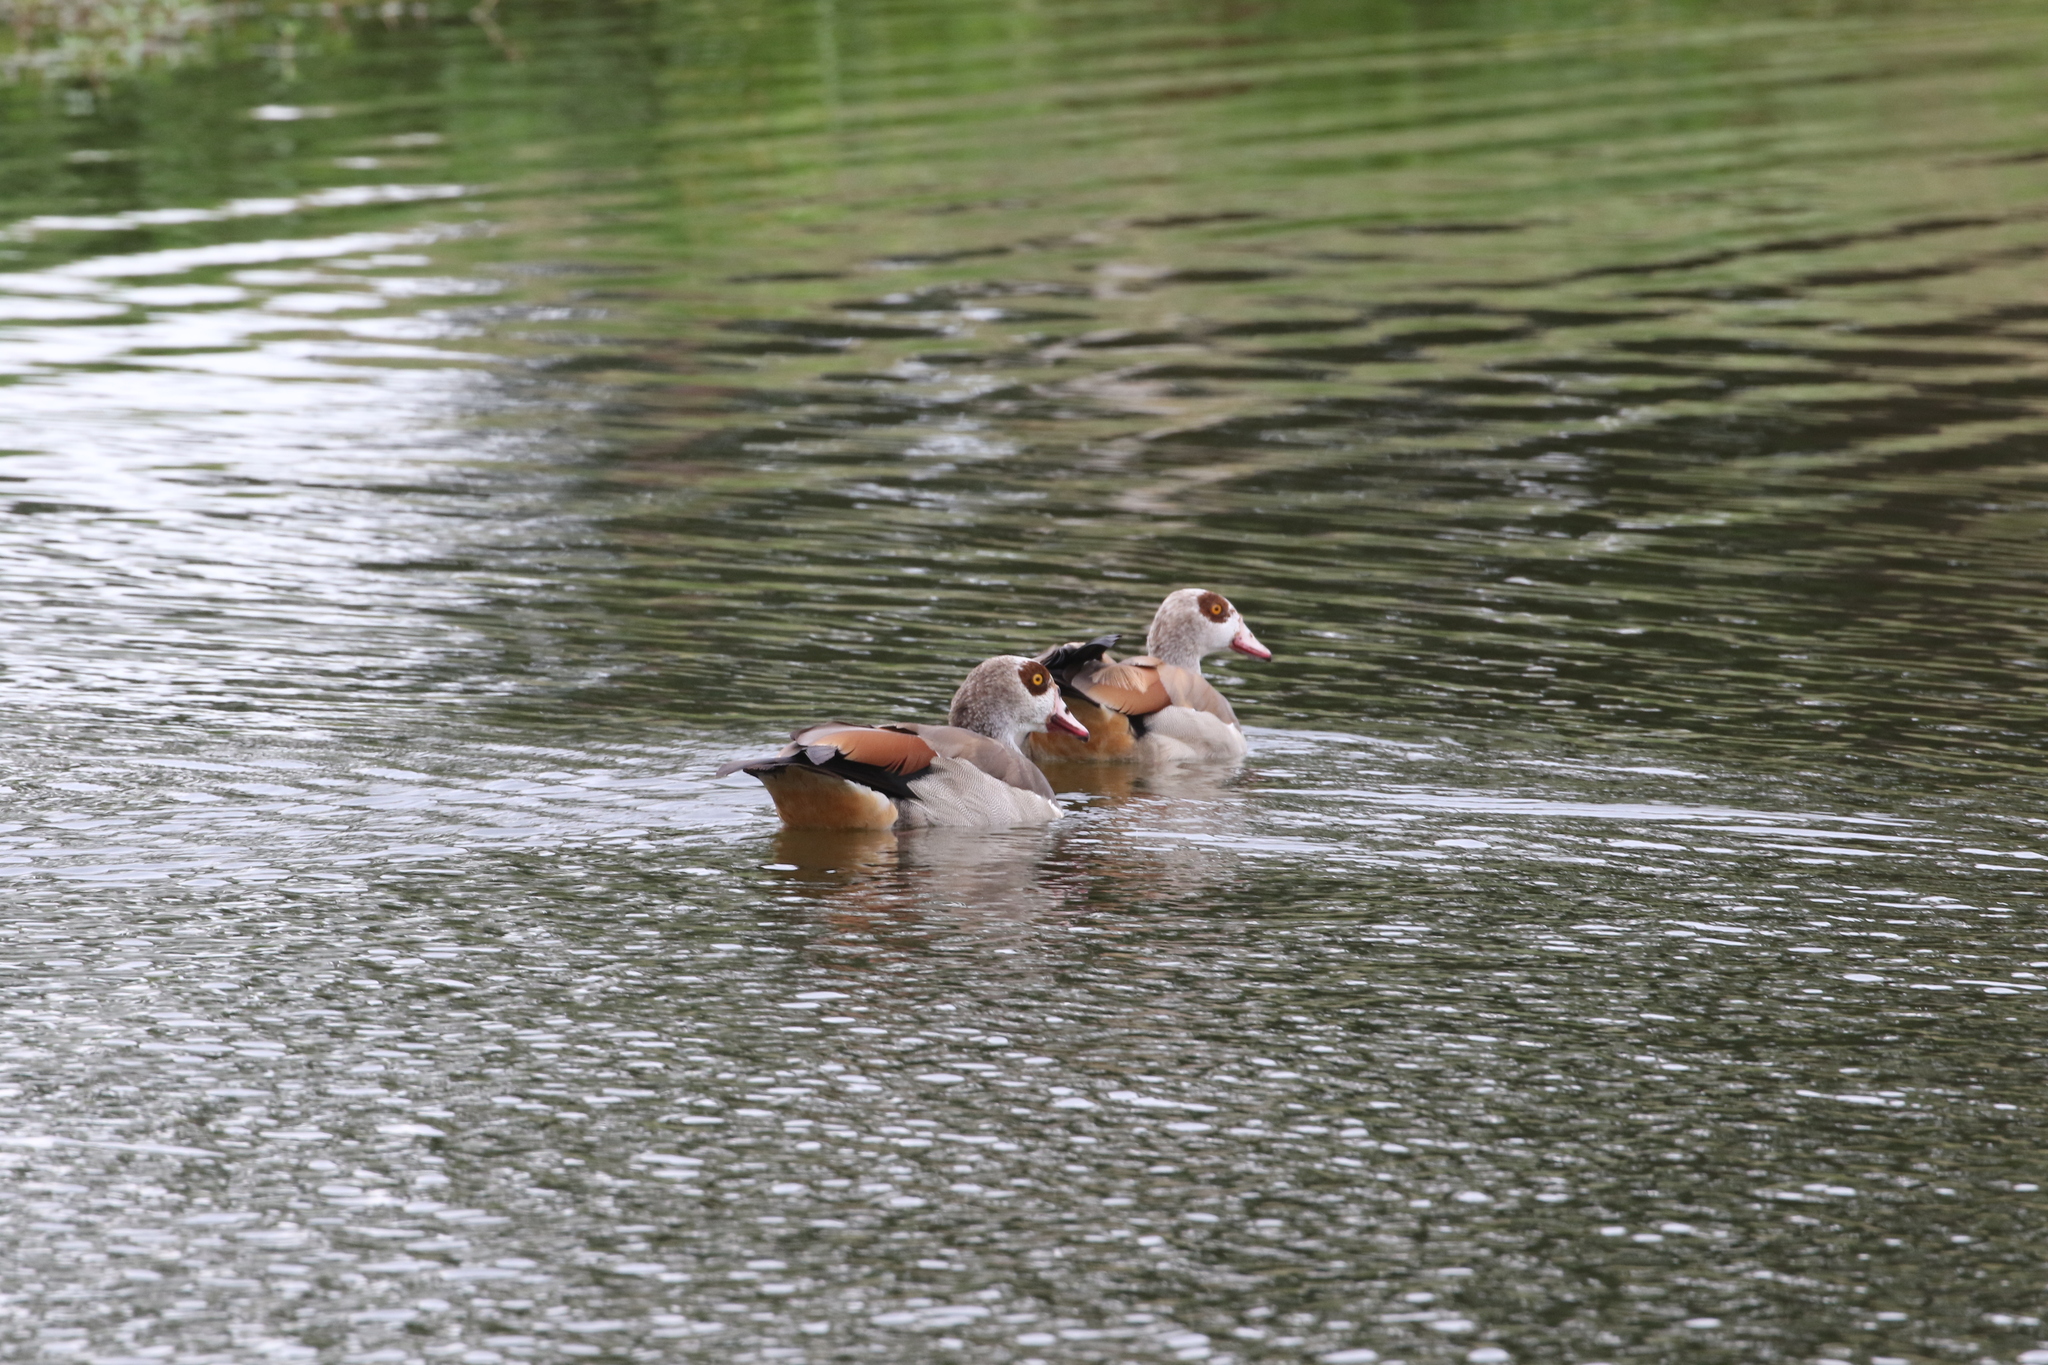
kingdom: Animalia
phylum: Chordata
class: Aves
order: Anseriformes
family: Anatidae
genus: Alopochen
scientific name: Alopochen aegyptiaca
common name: Egyptian goose
